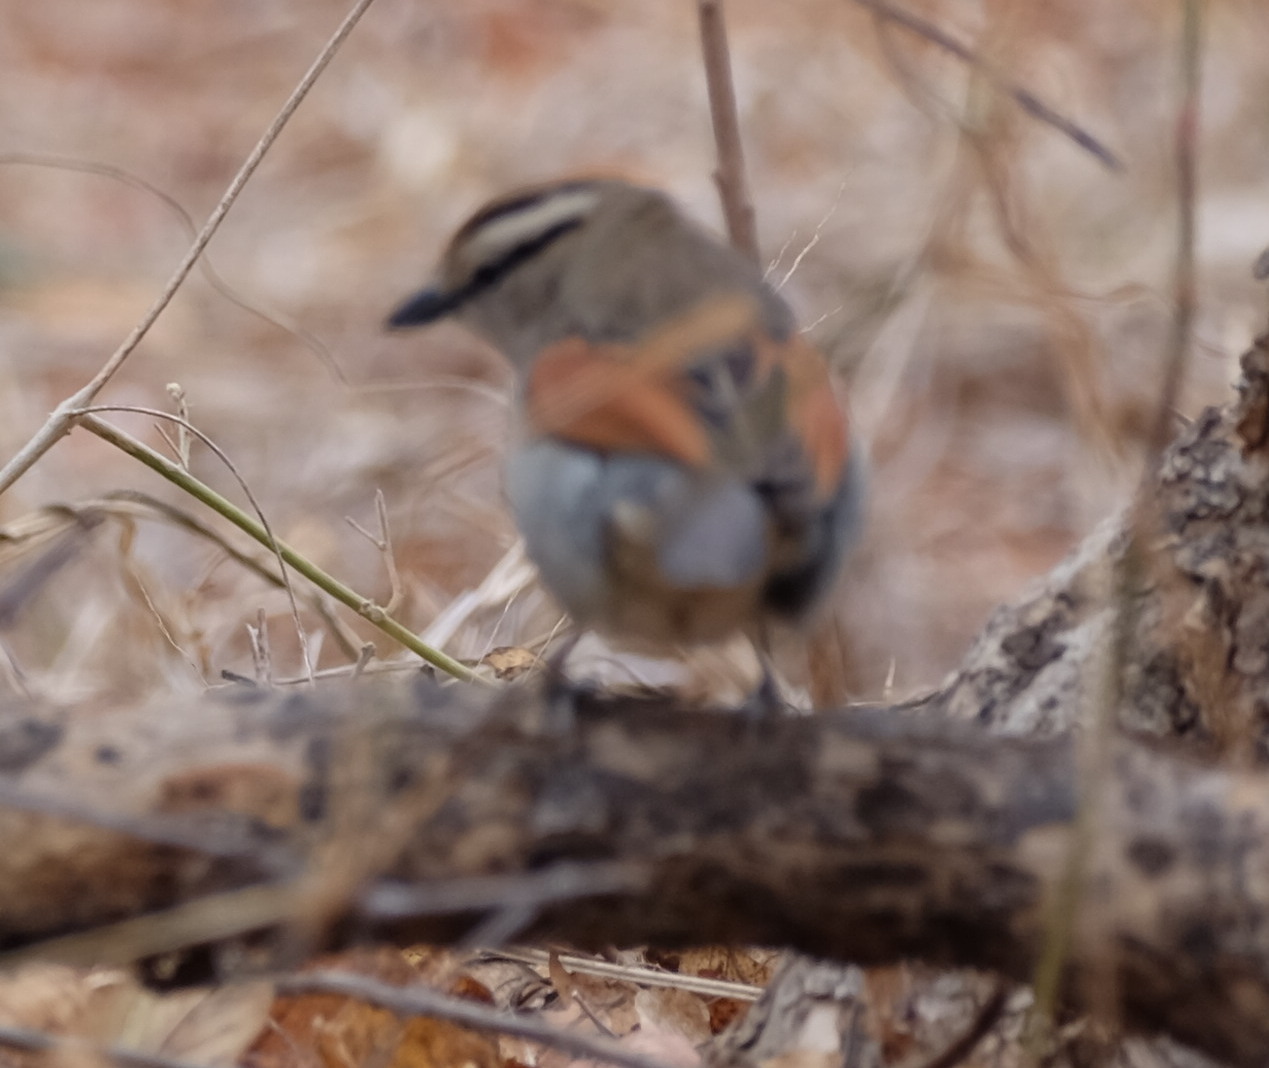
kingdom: Animalia
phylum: Chordata
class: Aves
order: Passeriformes
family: Malaconotidae
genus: Tchagra
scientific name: Tchagra australis
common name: Brown-crowned tchagra
